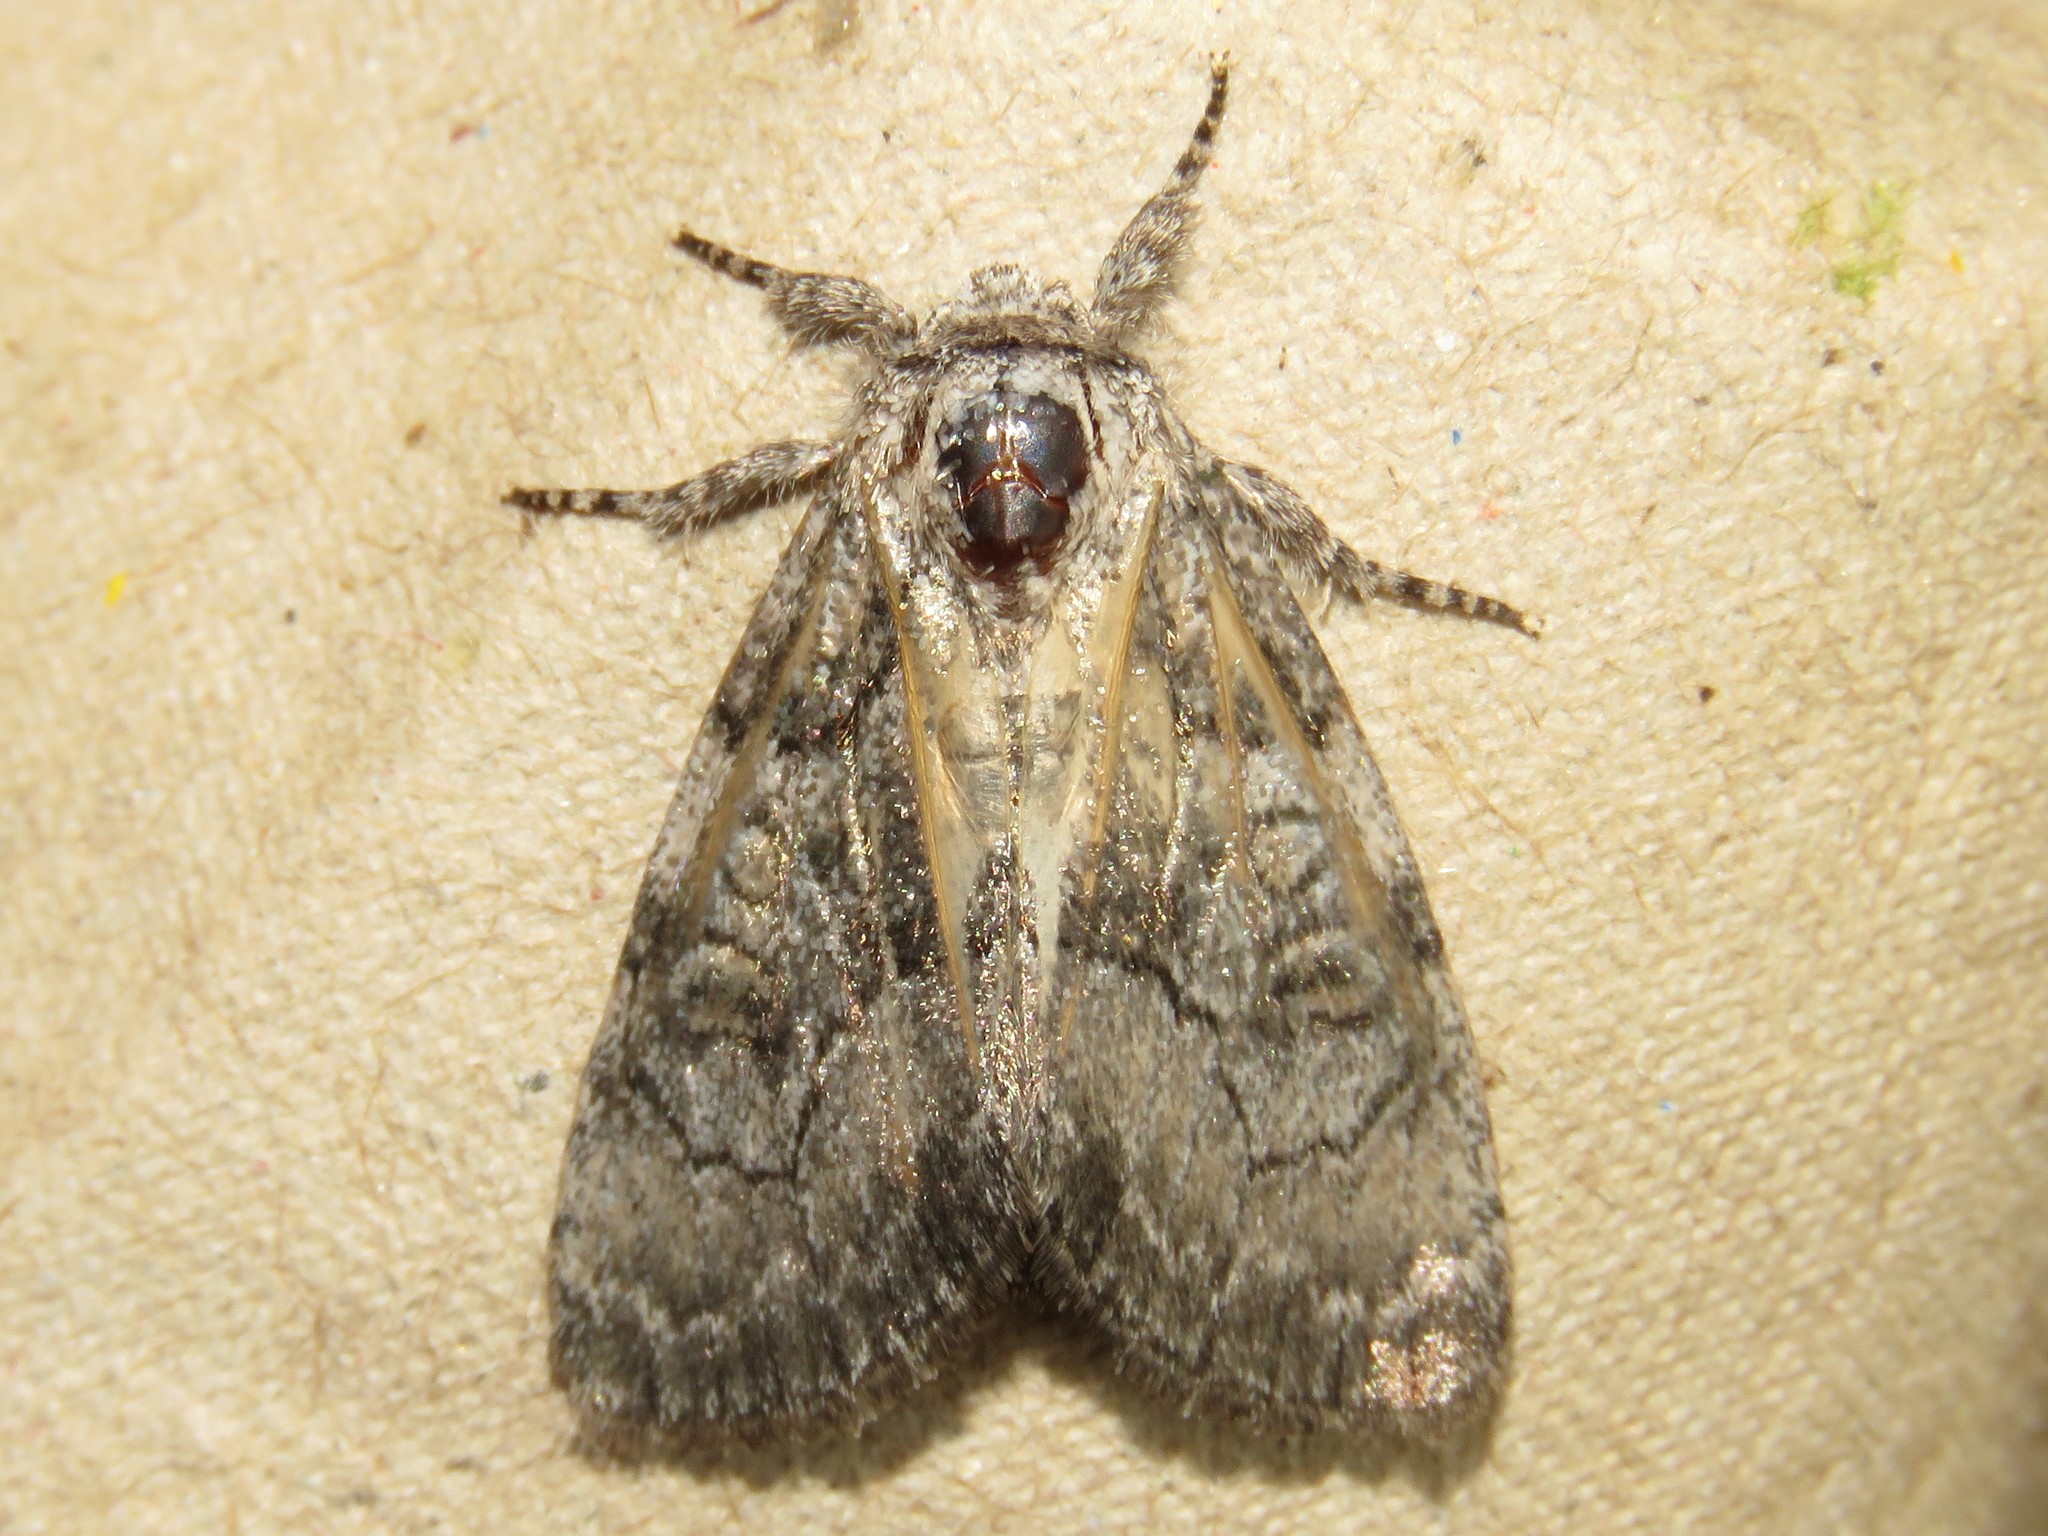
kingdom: Animalia
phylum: Arthropoda
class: Insecta
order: Lepidoptera
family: Noctuidae
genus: Raphia
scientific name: Raphia frater
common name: Brother
